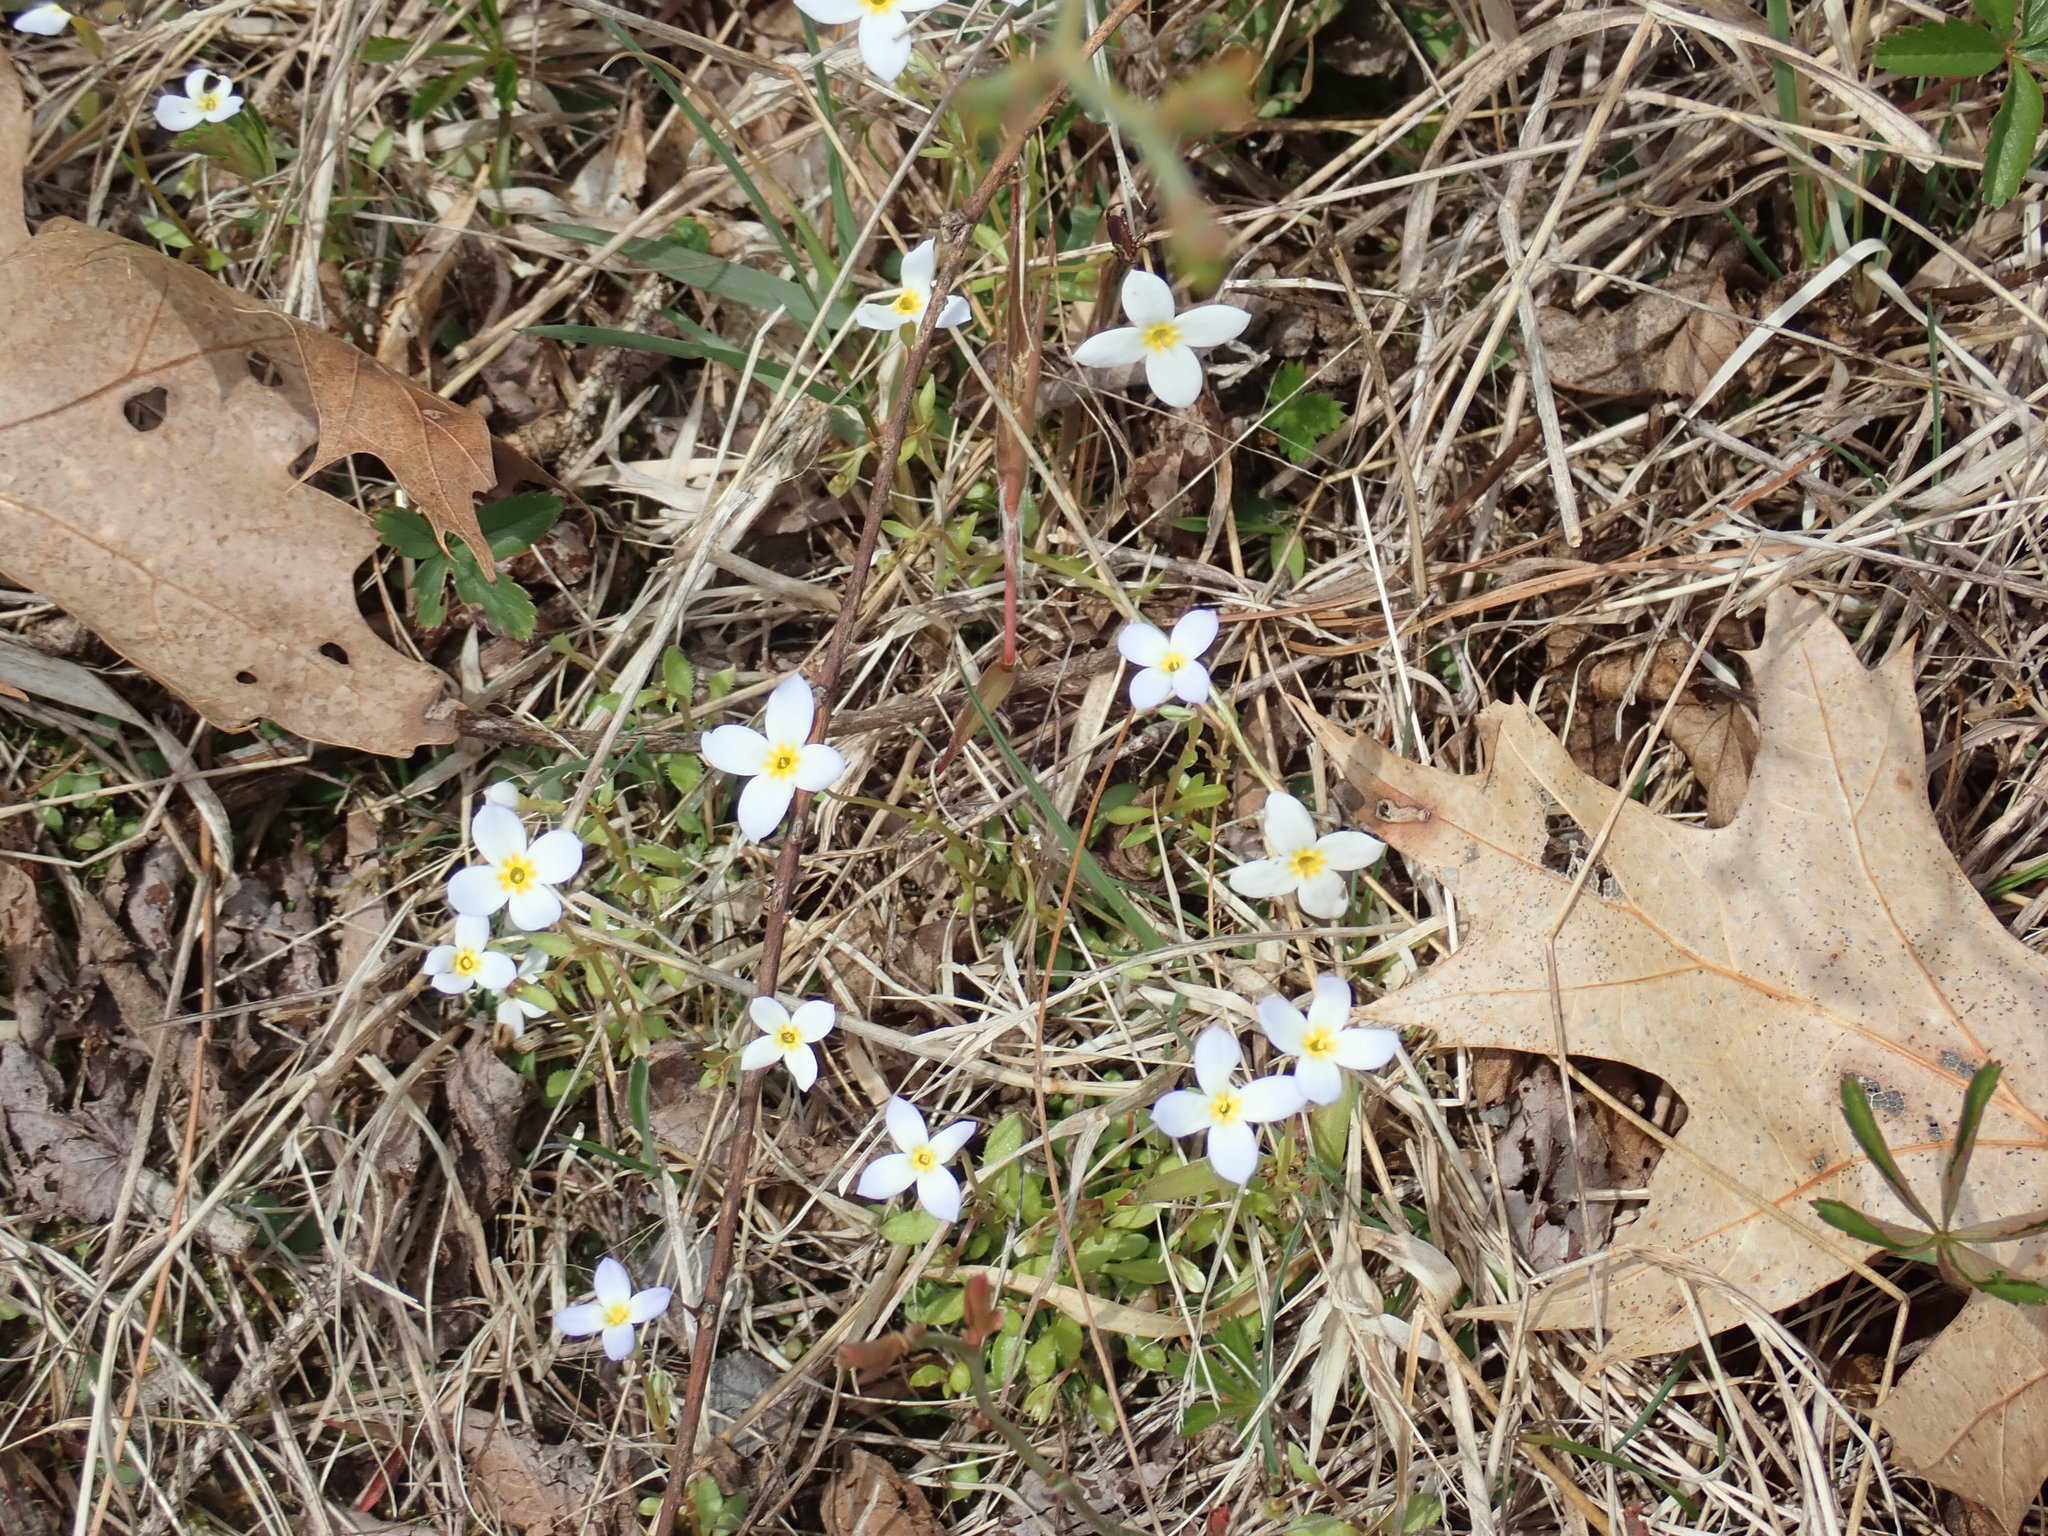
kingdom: Plantae
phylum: Tracheophyta
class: Magnoliopsida
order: Gentianales
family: Rubiaceae
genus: Houstonia
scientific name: Houstonia caerulea
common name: Bluets
